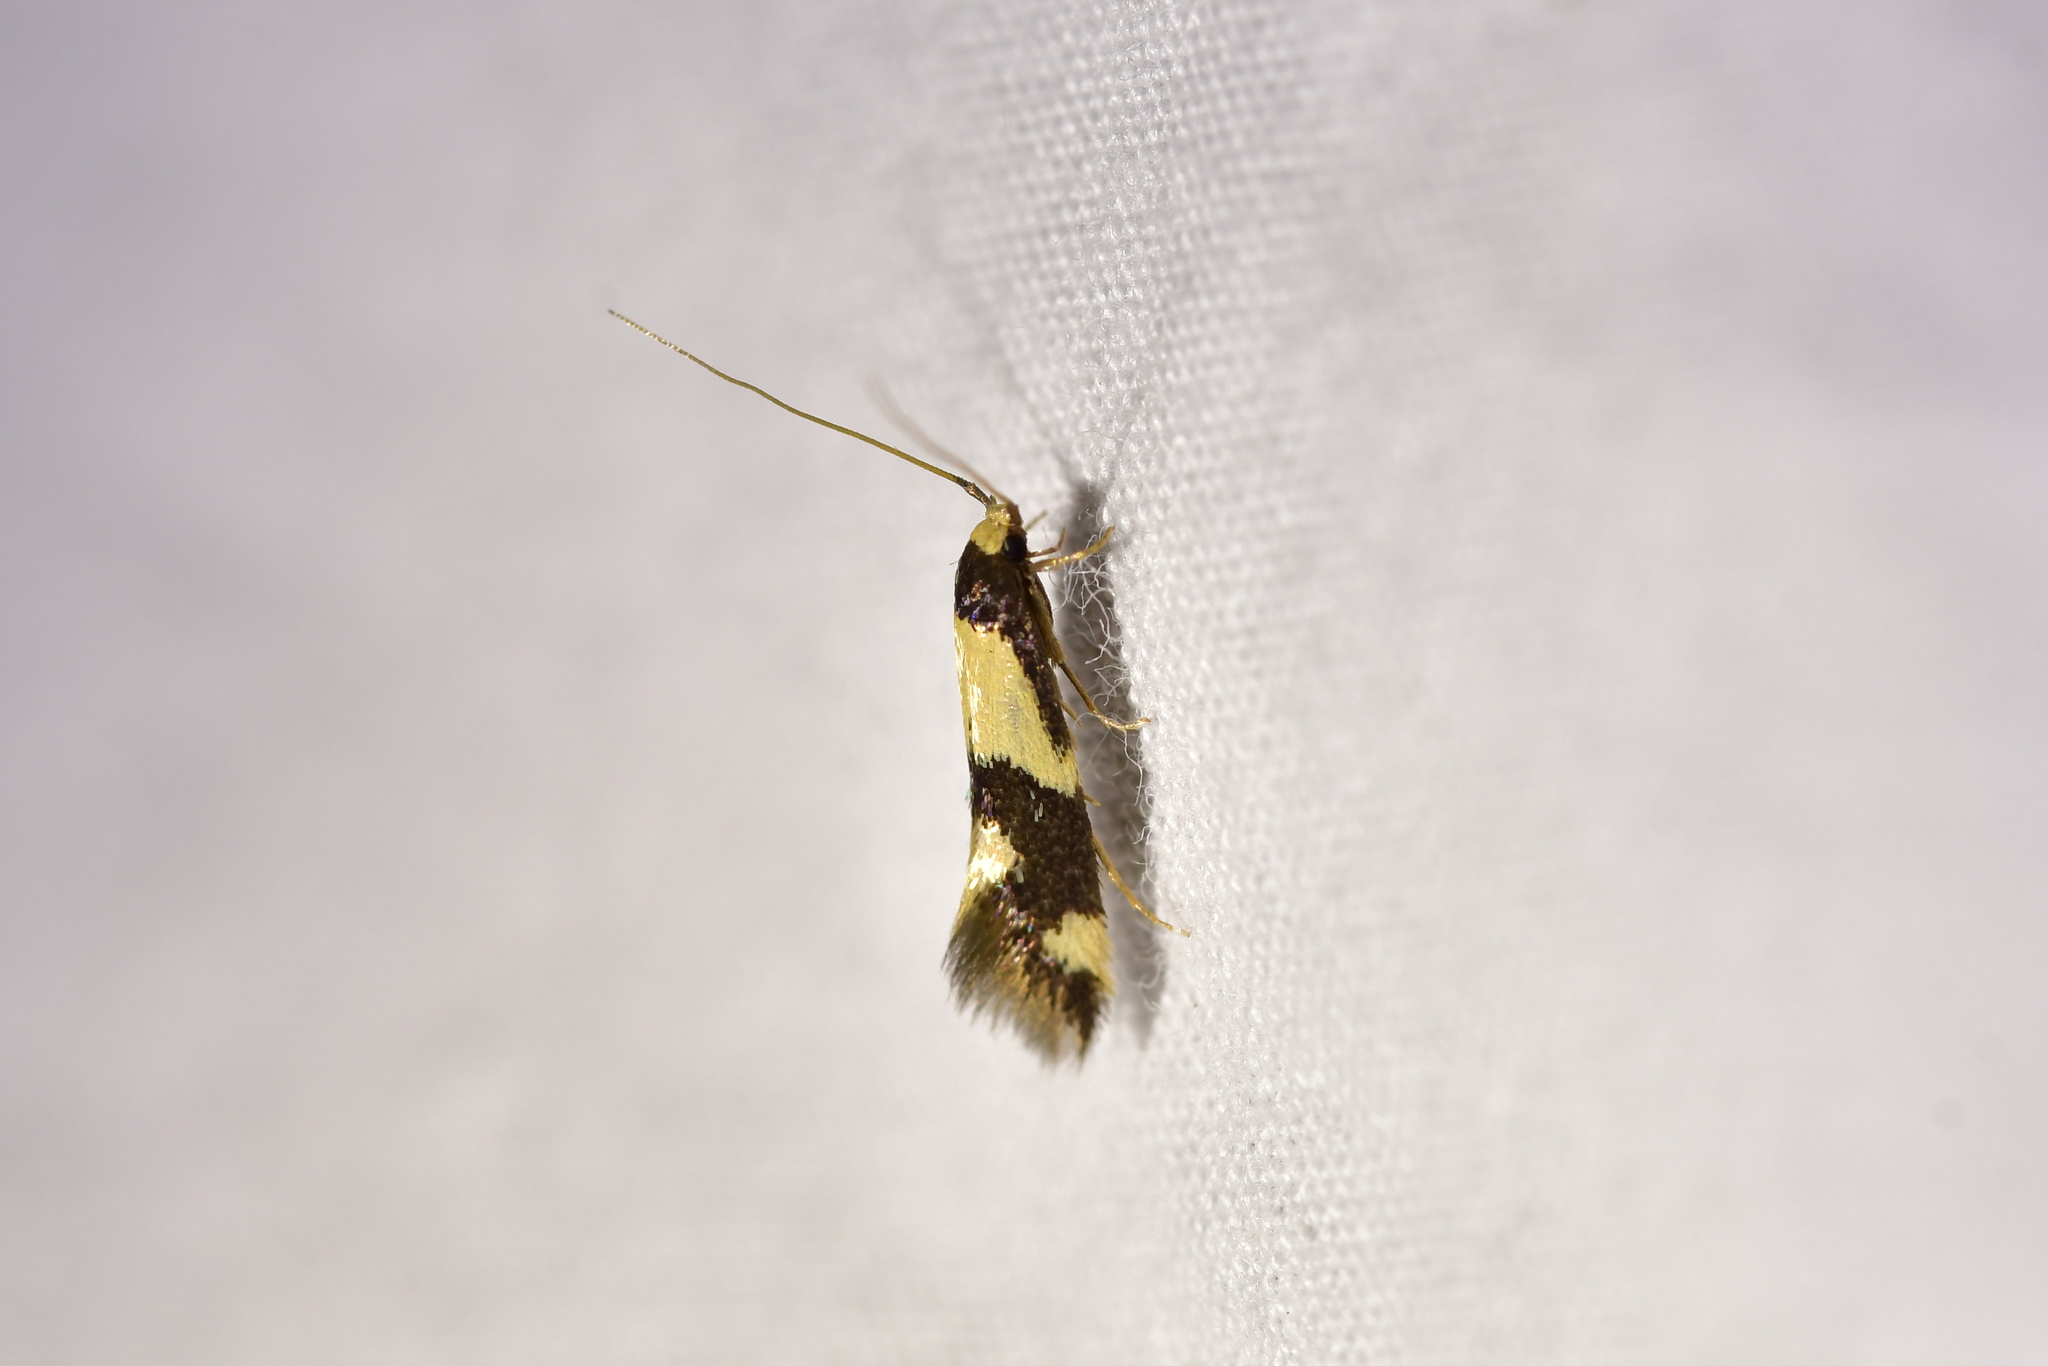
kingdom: Animalia
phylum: Arthropoda
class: Insecta
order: Lepidoptera
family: Tineidae
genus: Opogona
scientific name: Opogona comptella
